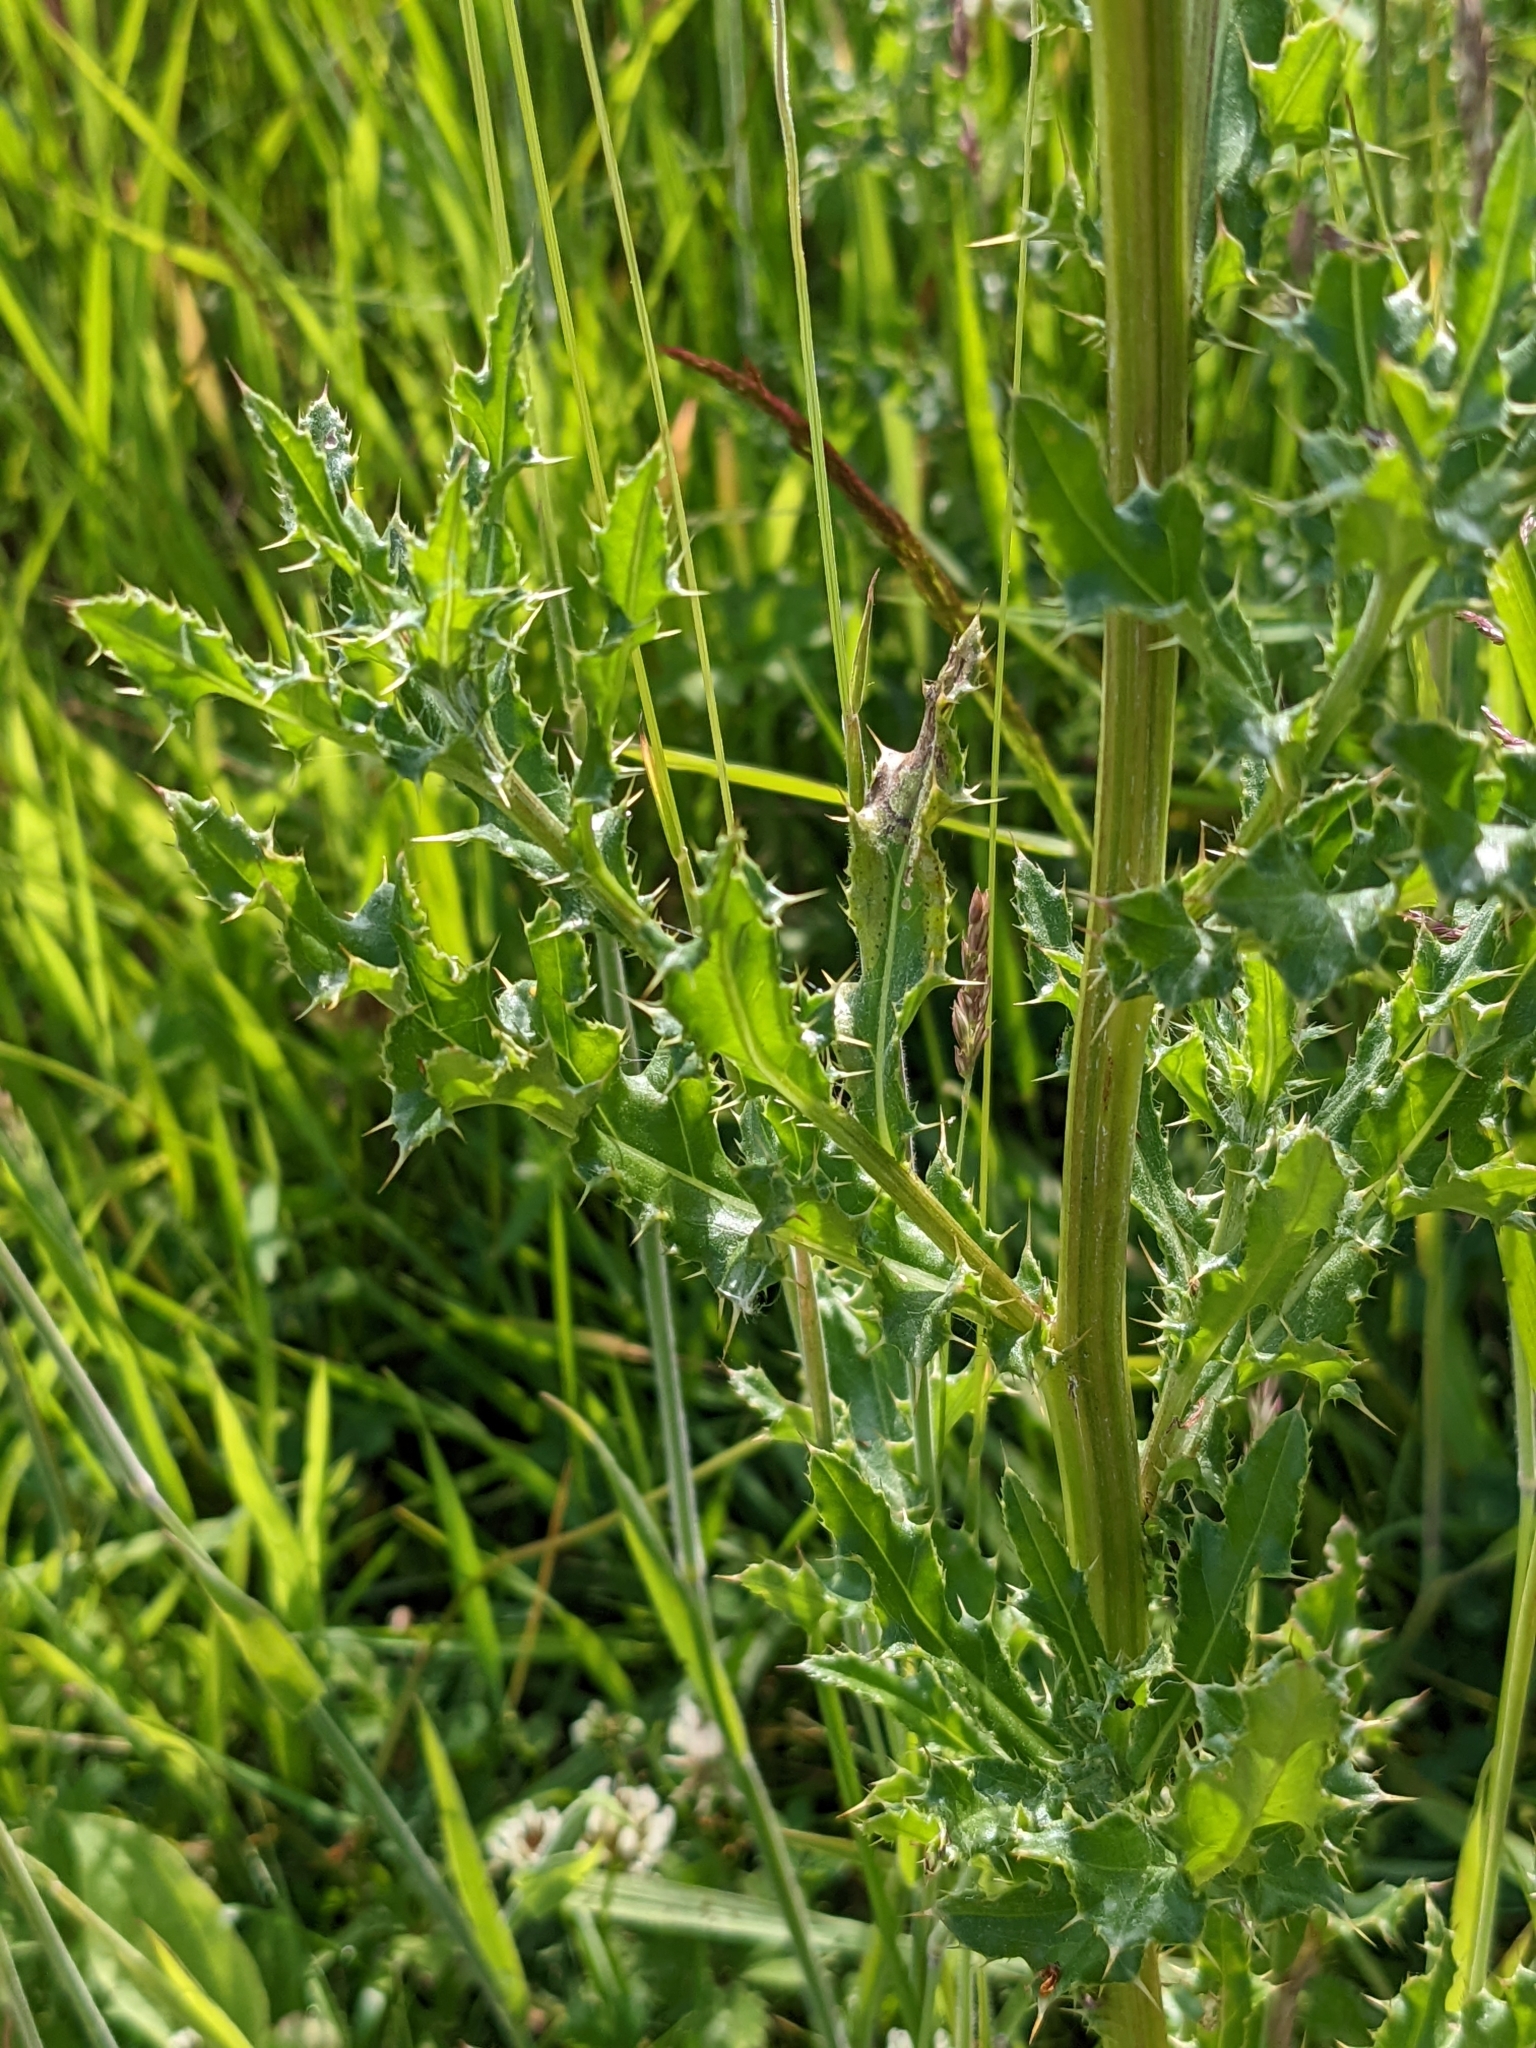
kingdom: Plantae
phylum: Tracheophyta
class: Magnoliopsida
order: Asterales
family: Asteraceae
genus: Cirsium
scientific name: Cirsium arvense
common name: Creeping thistle
